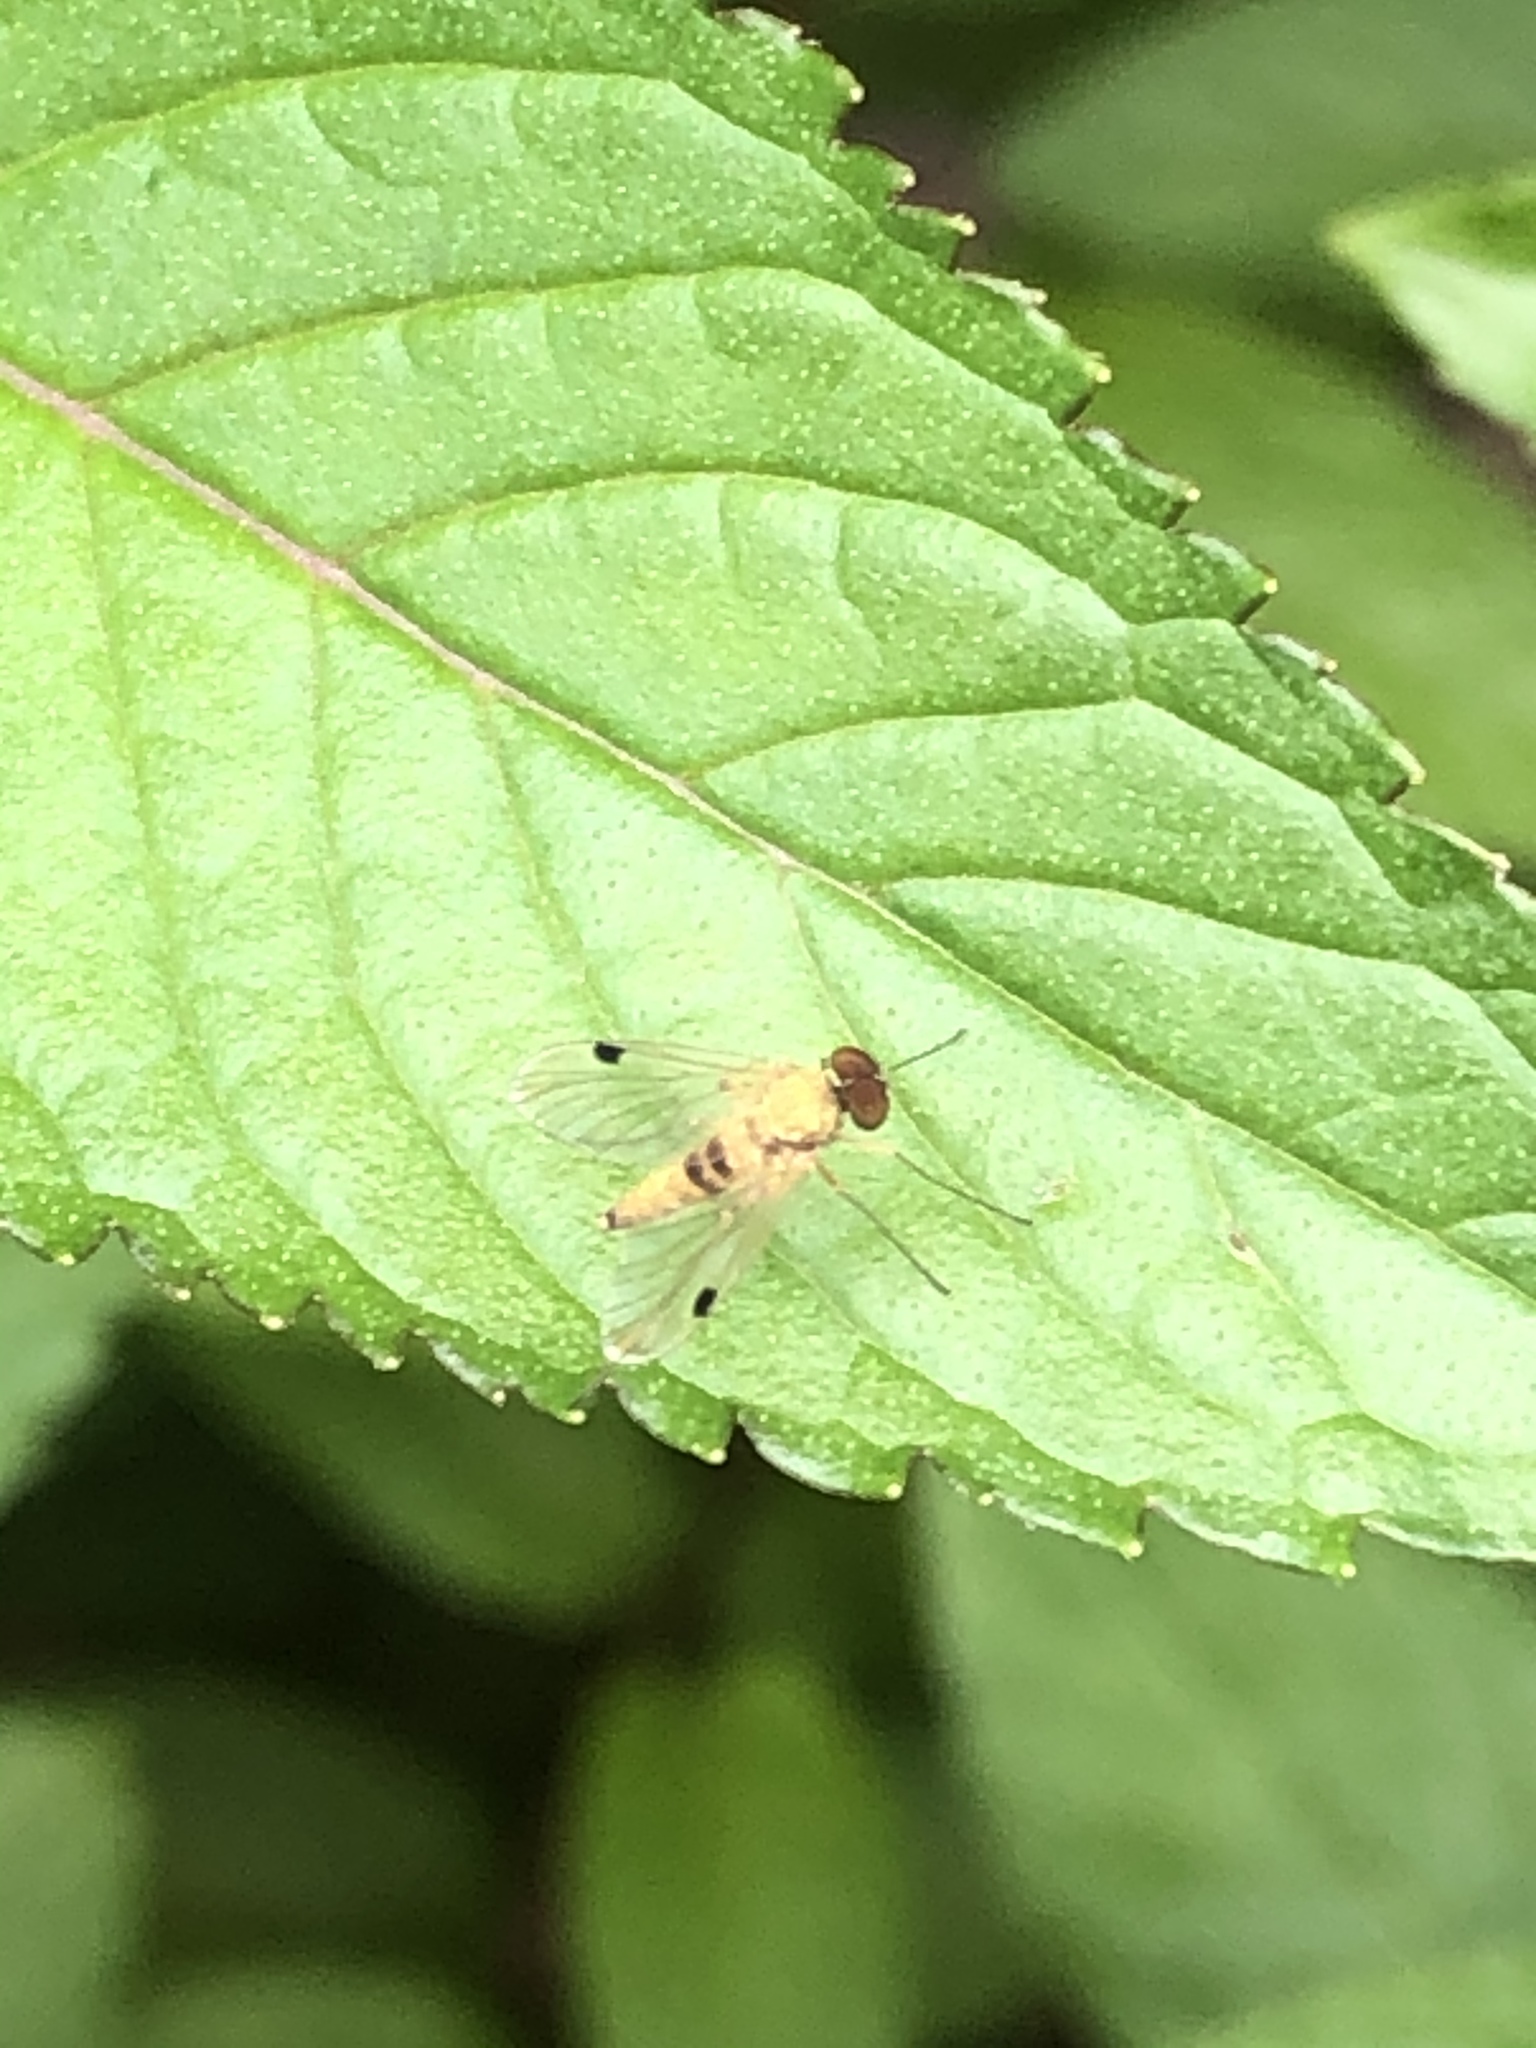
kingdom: Animalia
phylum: Arthropoda
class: Insecta
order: Diptera
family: Rhagionidae
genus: Chrysopilus
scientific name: Chrysopilus modestus
